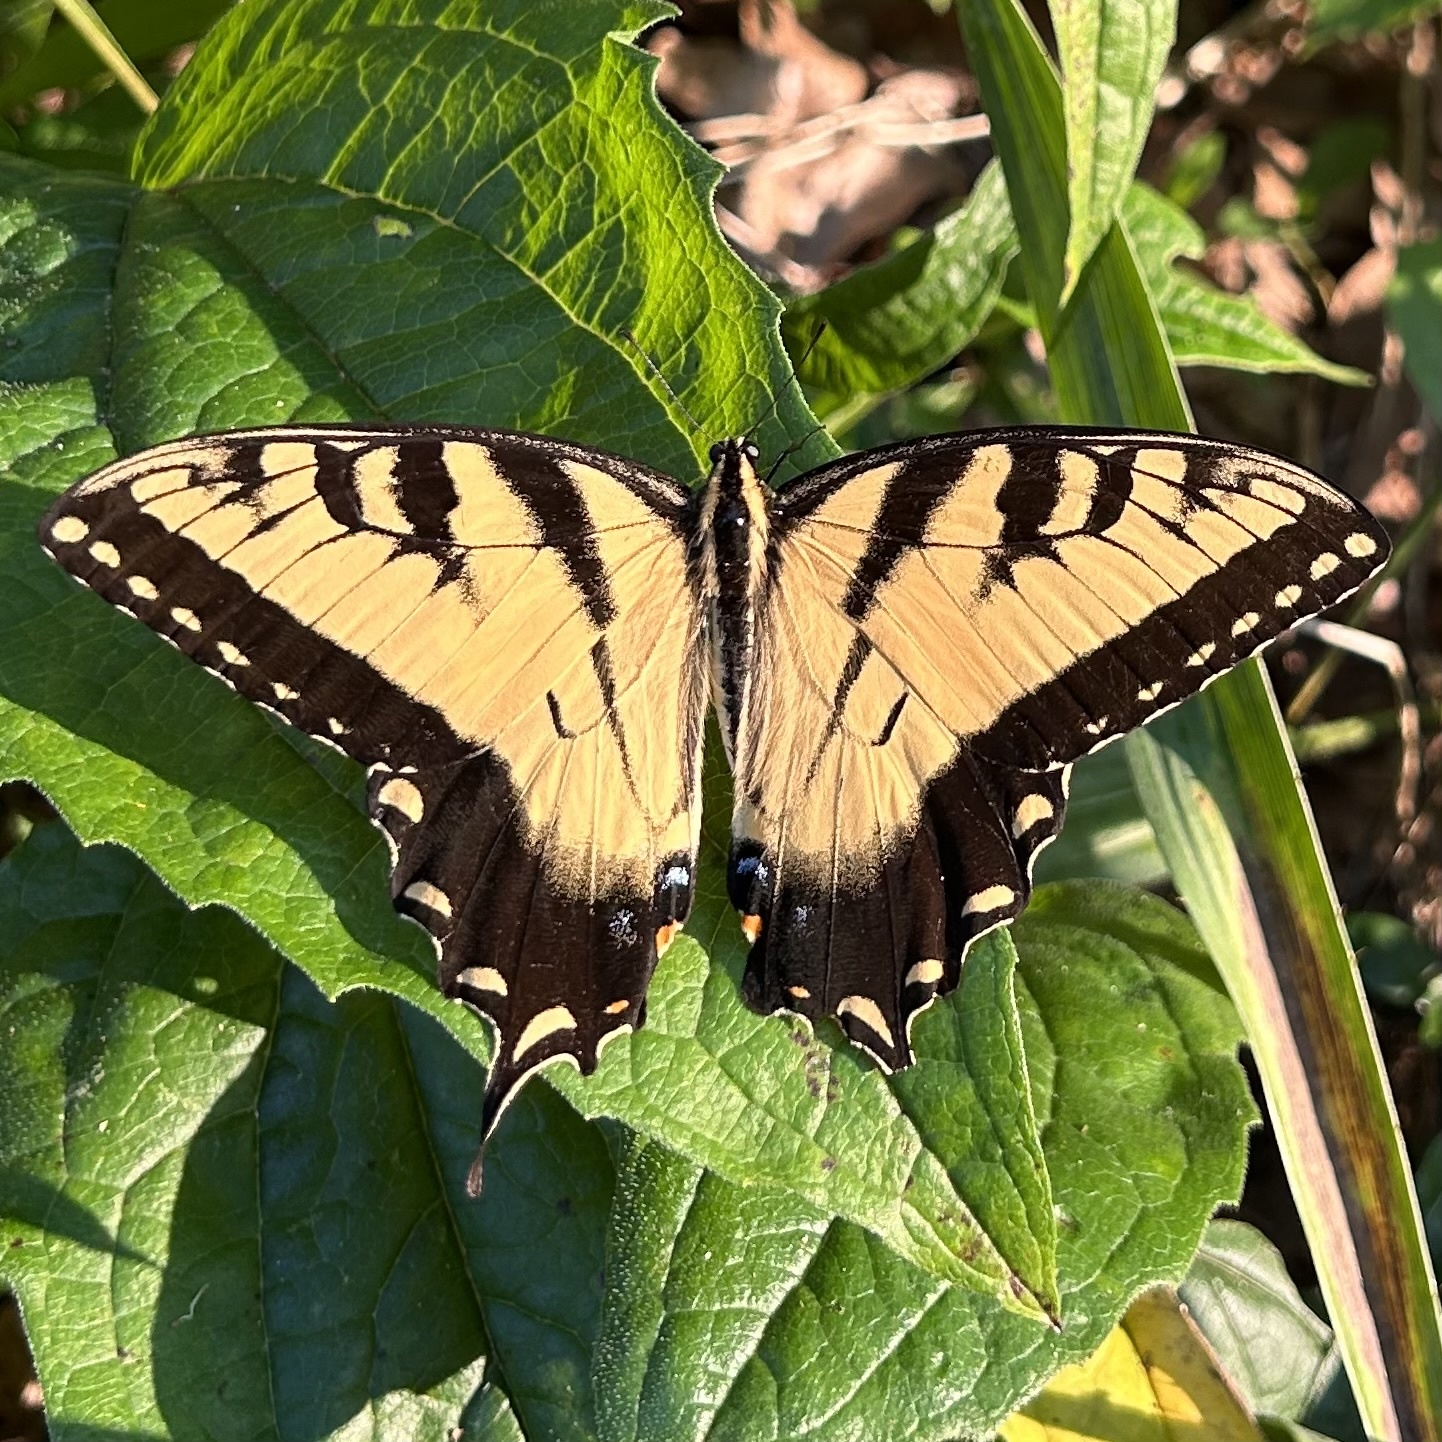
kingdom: Animalia
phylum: Arthropoda
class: Insecta
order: Lepidoptera
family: Papilionidae
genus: Papilio
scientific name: Papilio glaucus
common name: Tiger swallowtail
